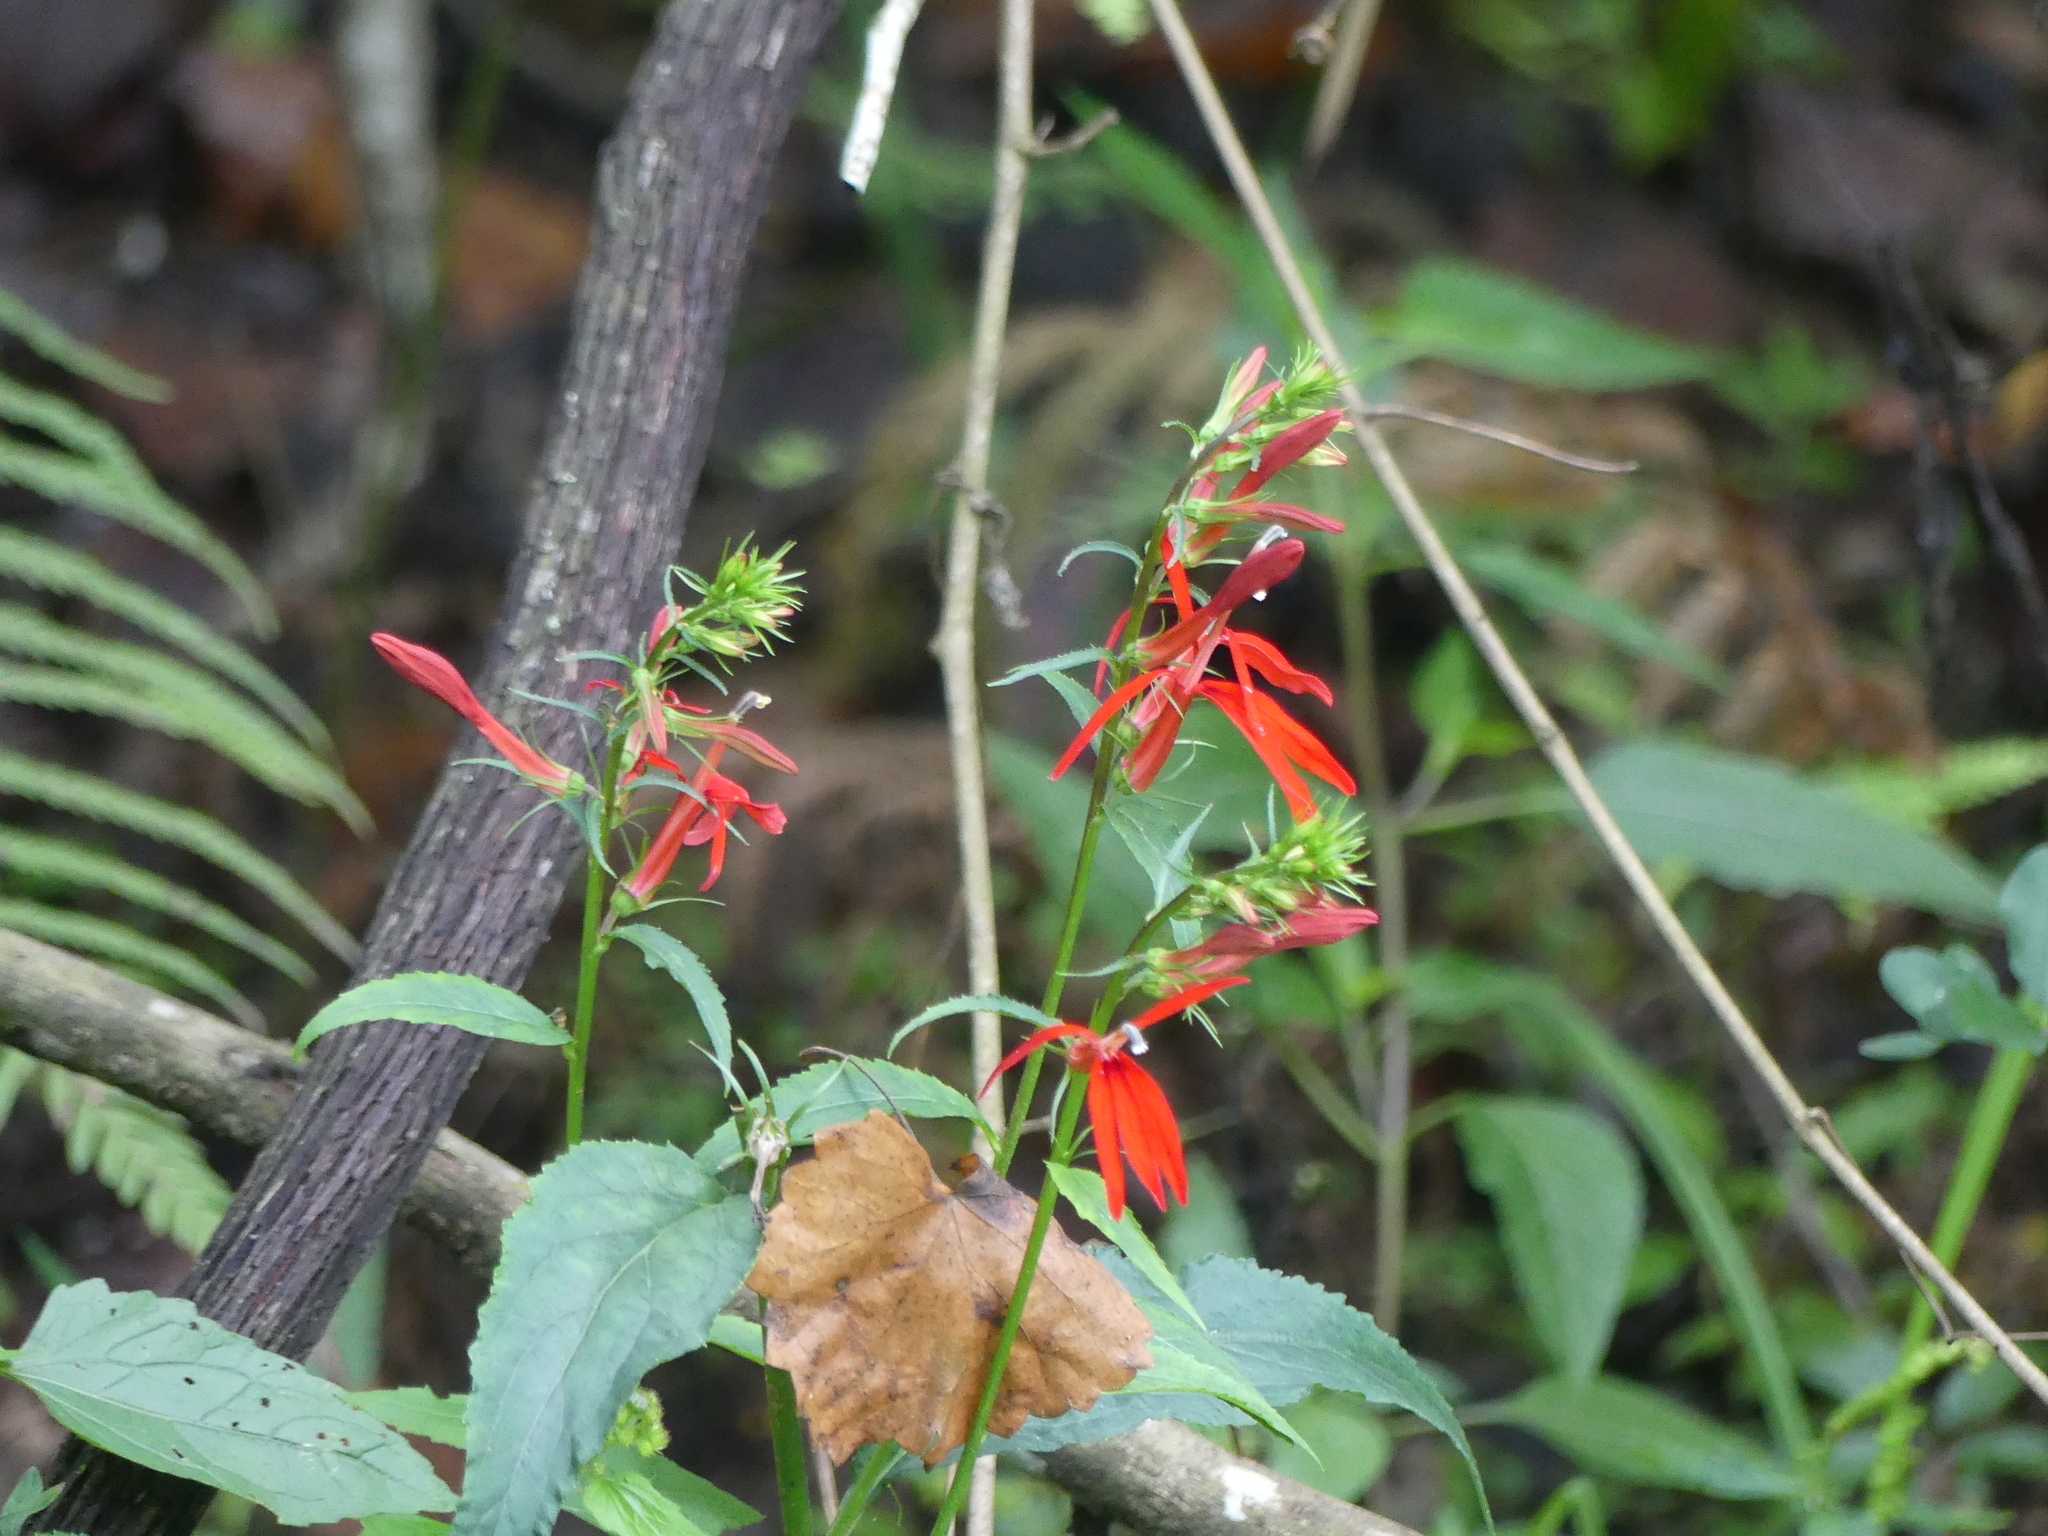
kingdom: Plantae
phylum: Tracheophyta
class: Magnoliopsida
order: Asterales
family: Campanulaceae
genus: Lobelia
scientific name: Lobelia cardinalis
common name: Cardinal flower
